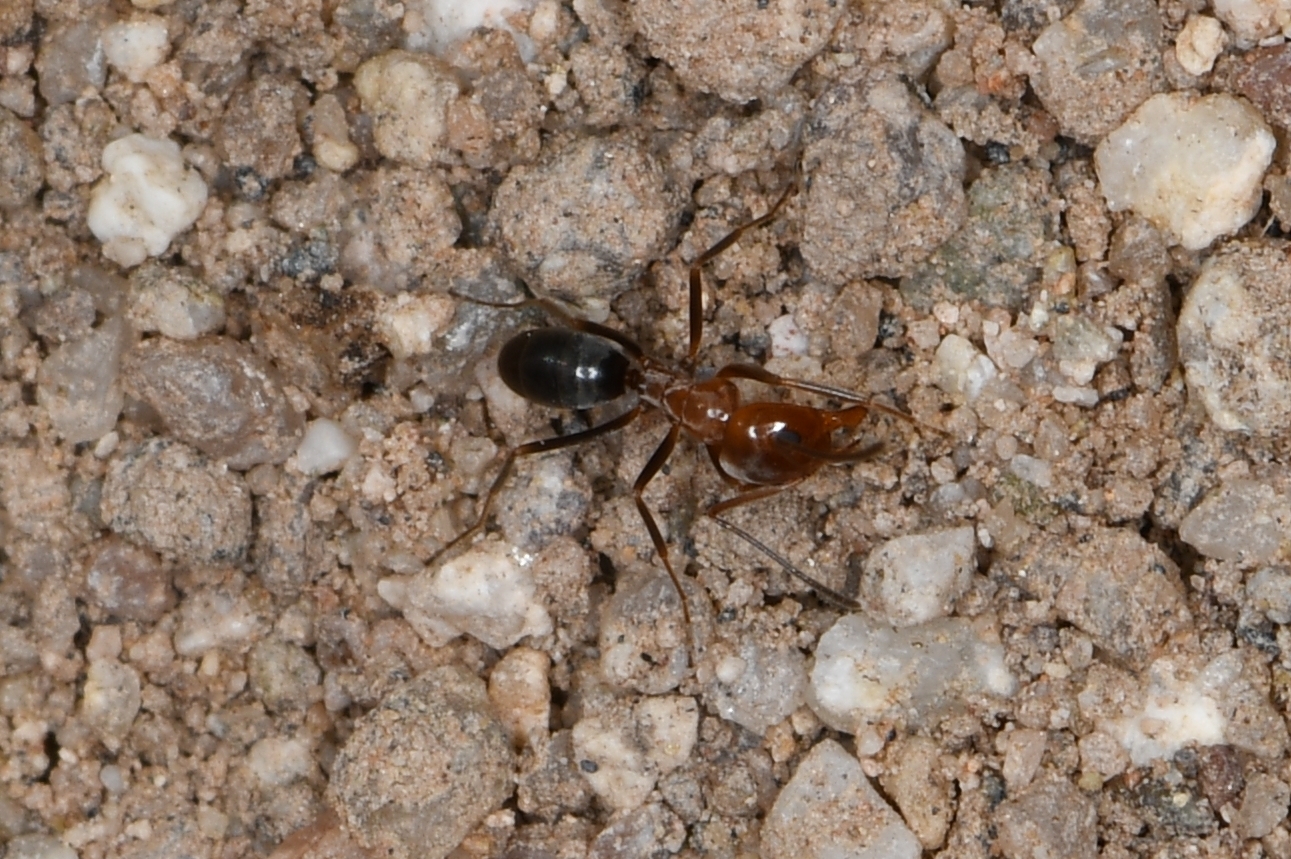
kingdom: Animalia
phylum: Arthropoda
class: Insecta
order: Hymenoptera
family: Formicidae
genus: Dorymyrmex
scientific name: Dorymyrmex bicolor
